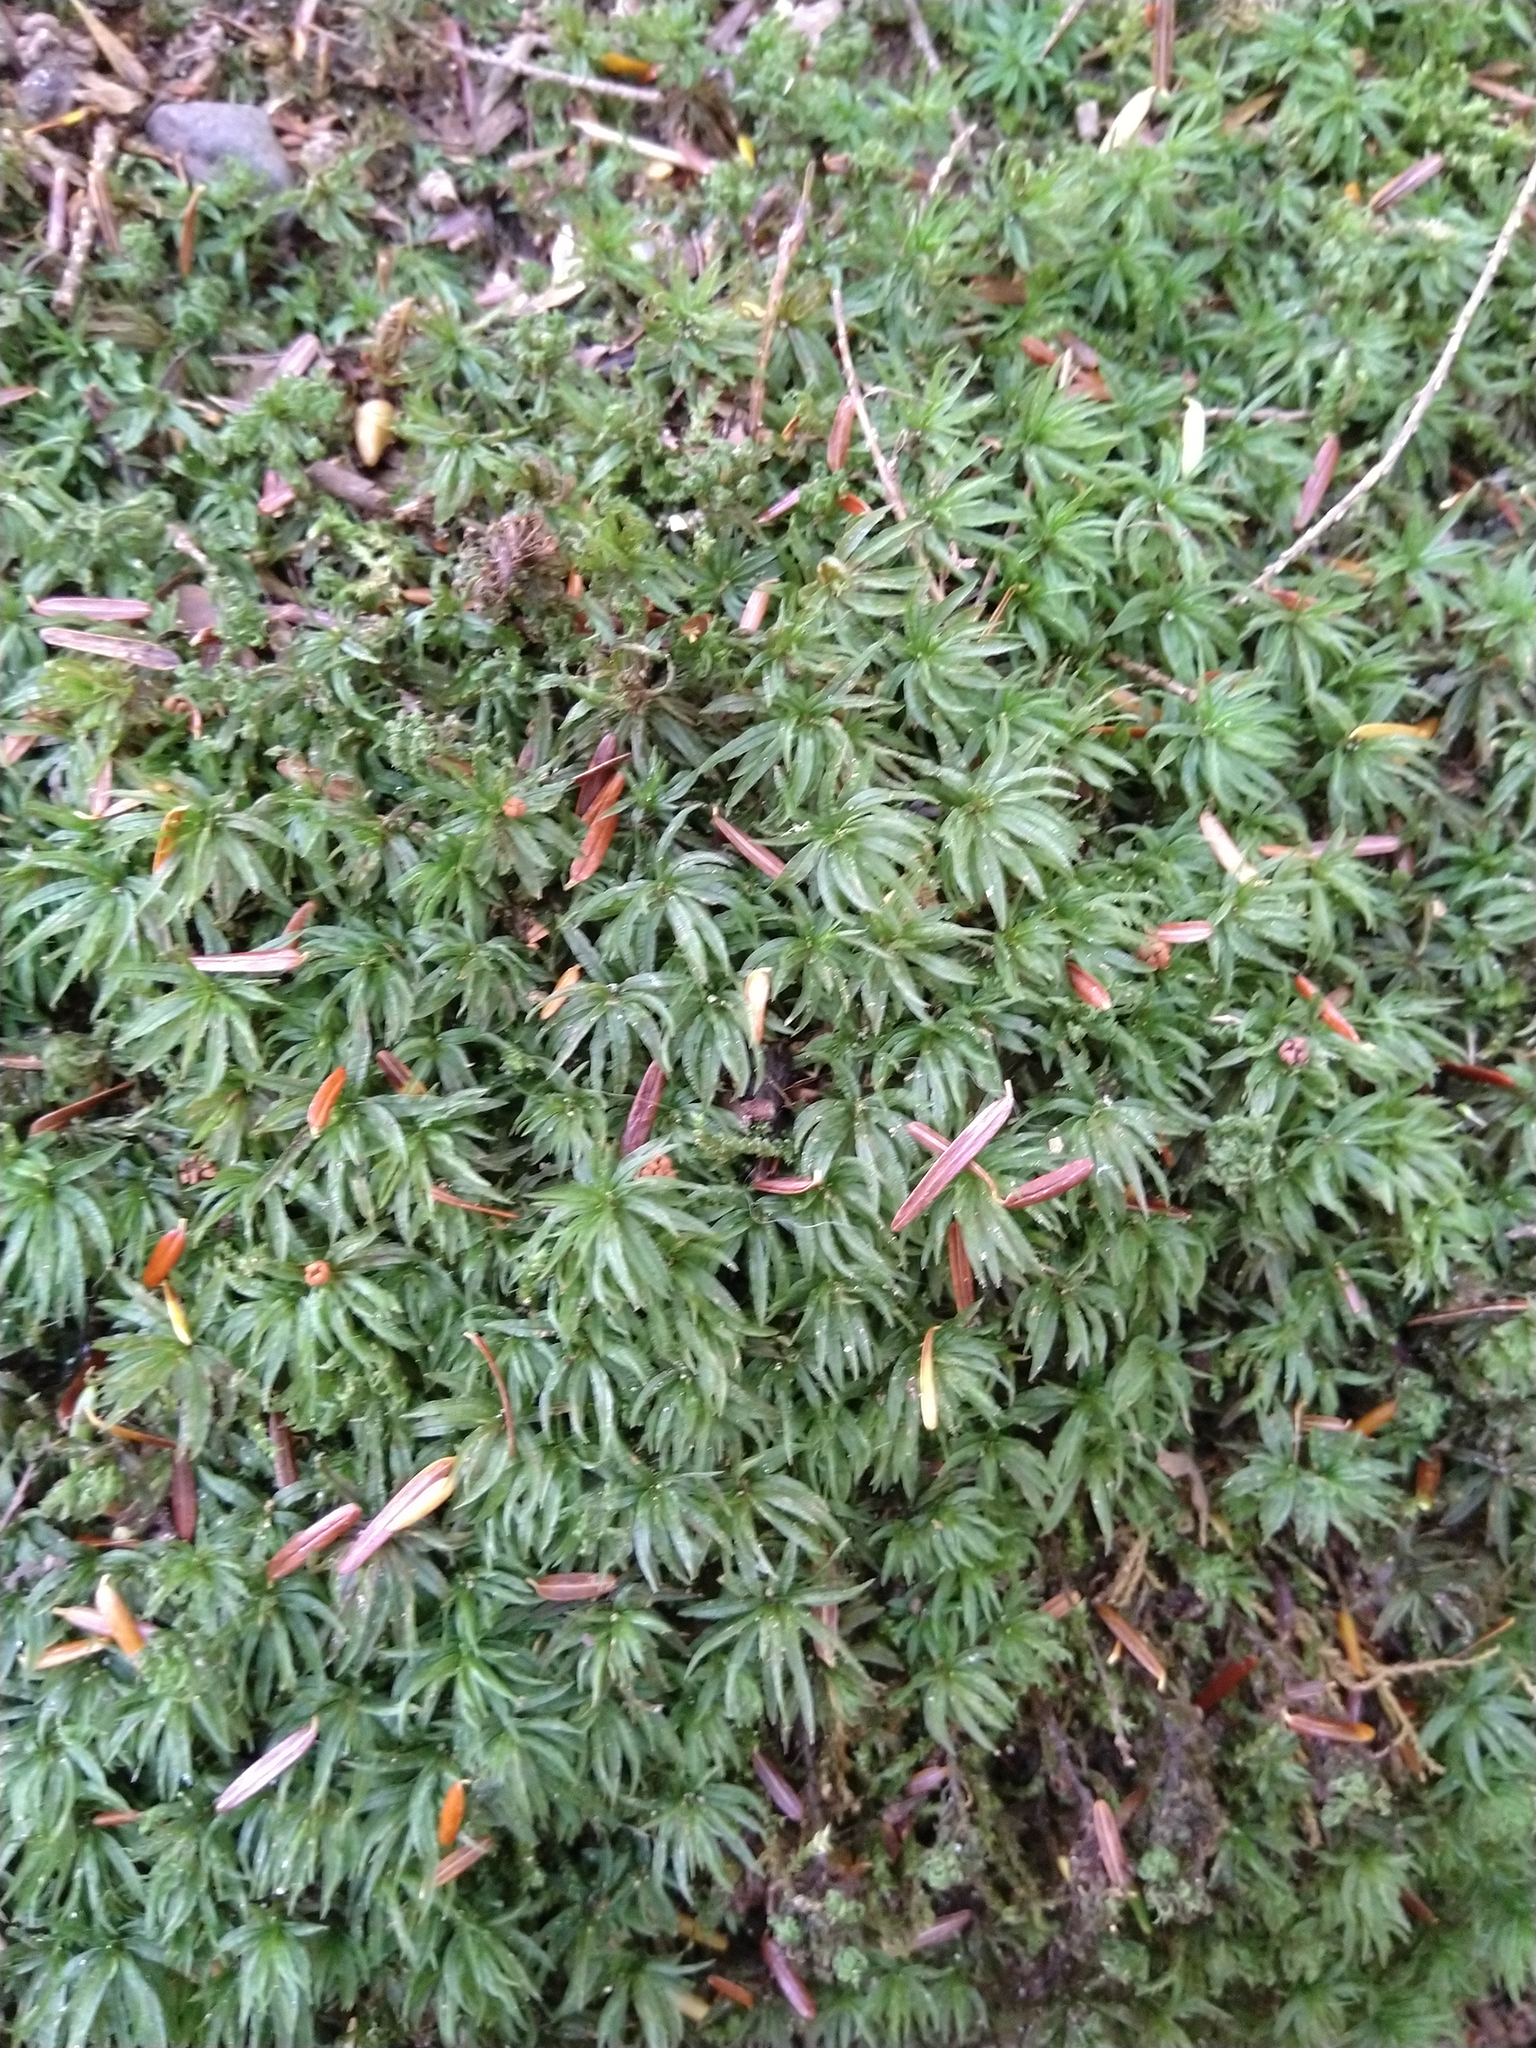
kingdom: Plantae
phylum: Bryophyta
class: Polytrichopsida
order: Polytrichales
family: Polytrichaceae
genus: Atrichum
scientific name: Atrichum
